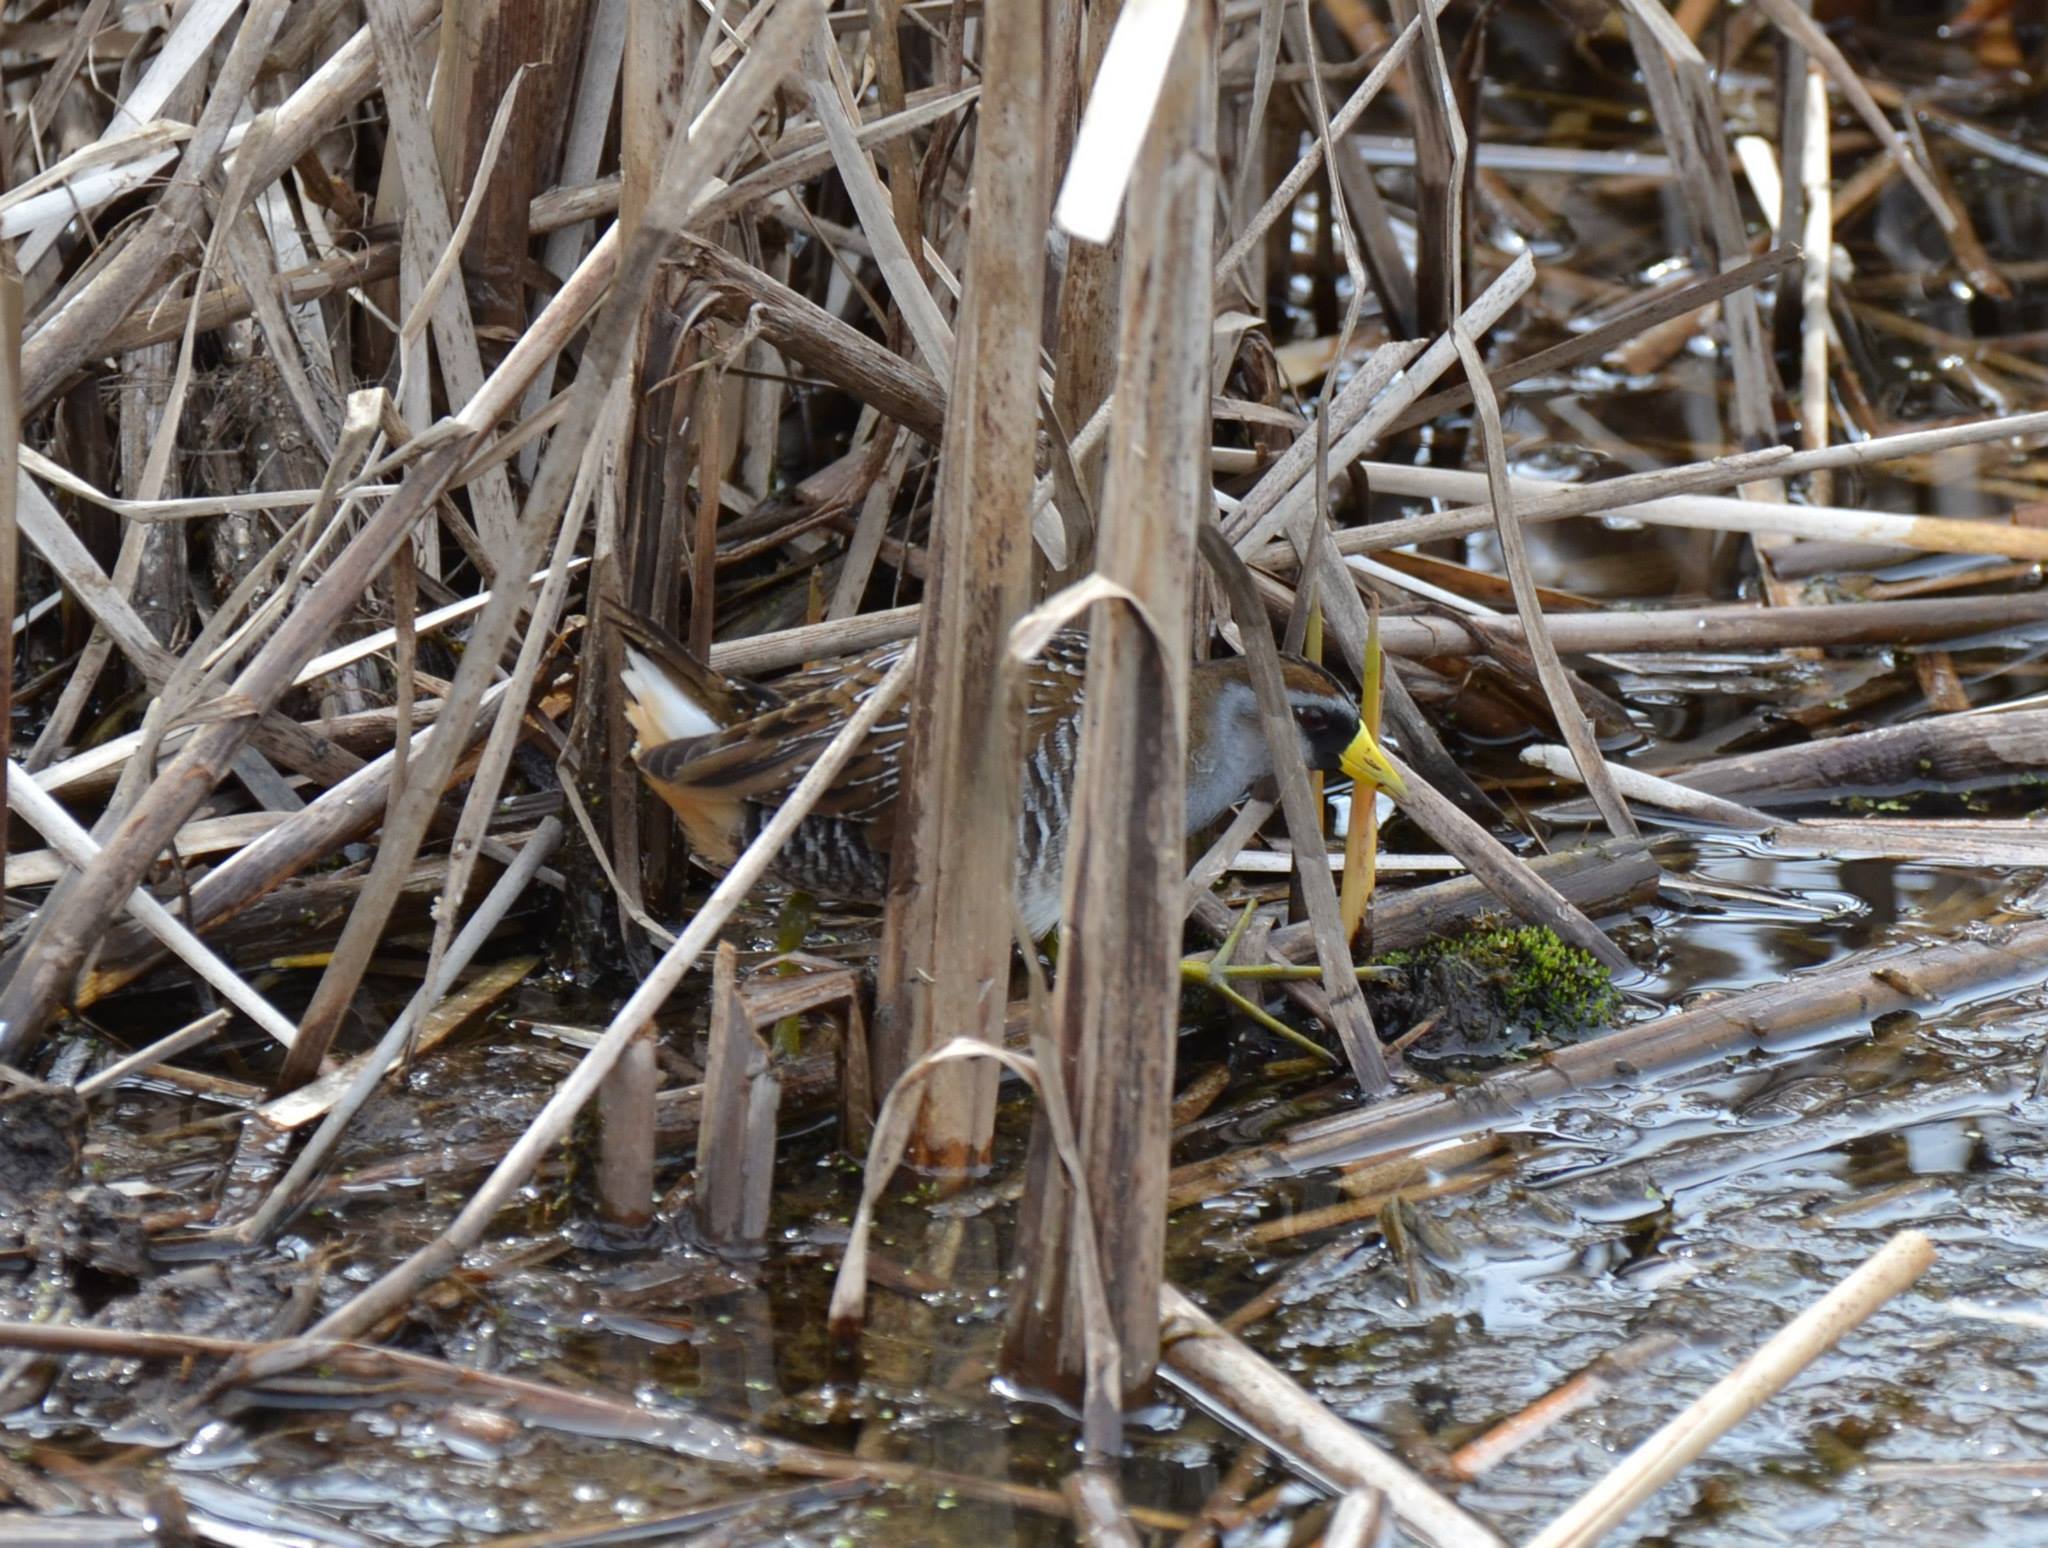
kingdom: Animalia
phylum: Chordata
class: Aves
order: Gruiformes
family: Rallidae
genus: Porzana
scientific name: Porzana carolina
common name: Sora
